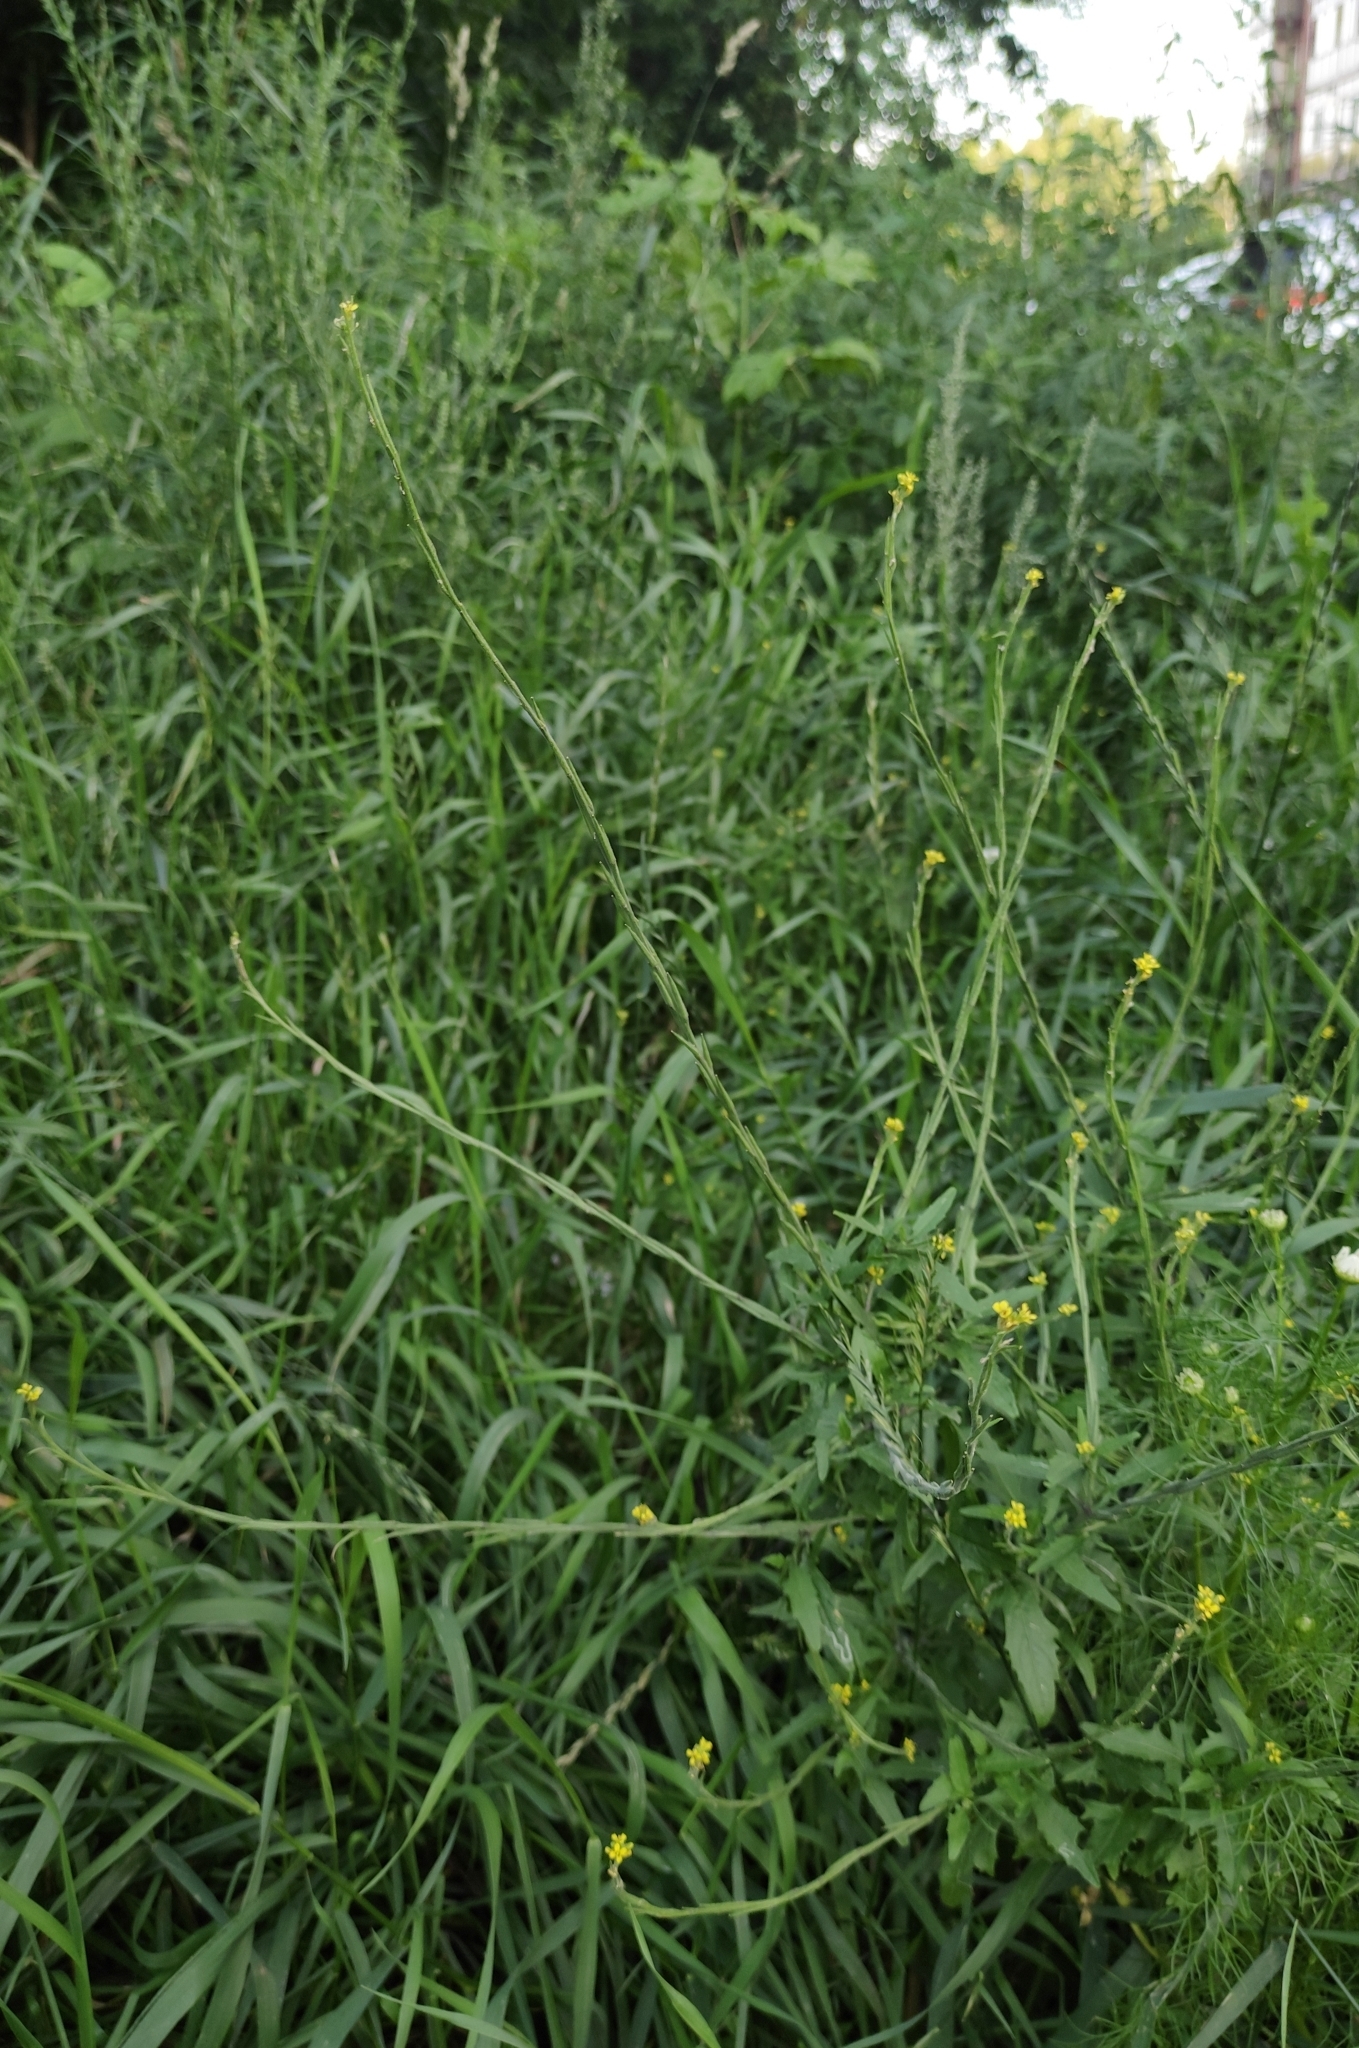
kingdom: Plantae
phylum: Tracheophyta
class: Magnoliopsida
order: Brassicales
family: Brassicaceae
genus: Sisymbrium
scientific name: Sisymbrium officinale
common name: Hedge mustard
